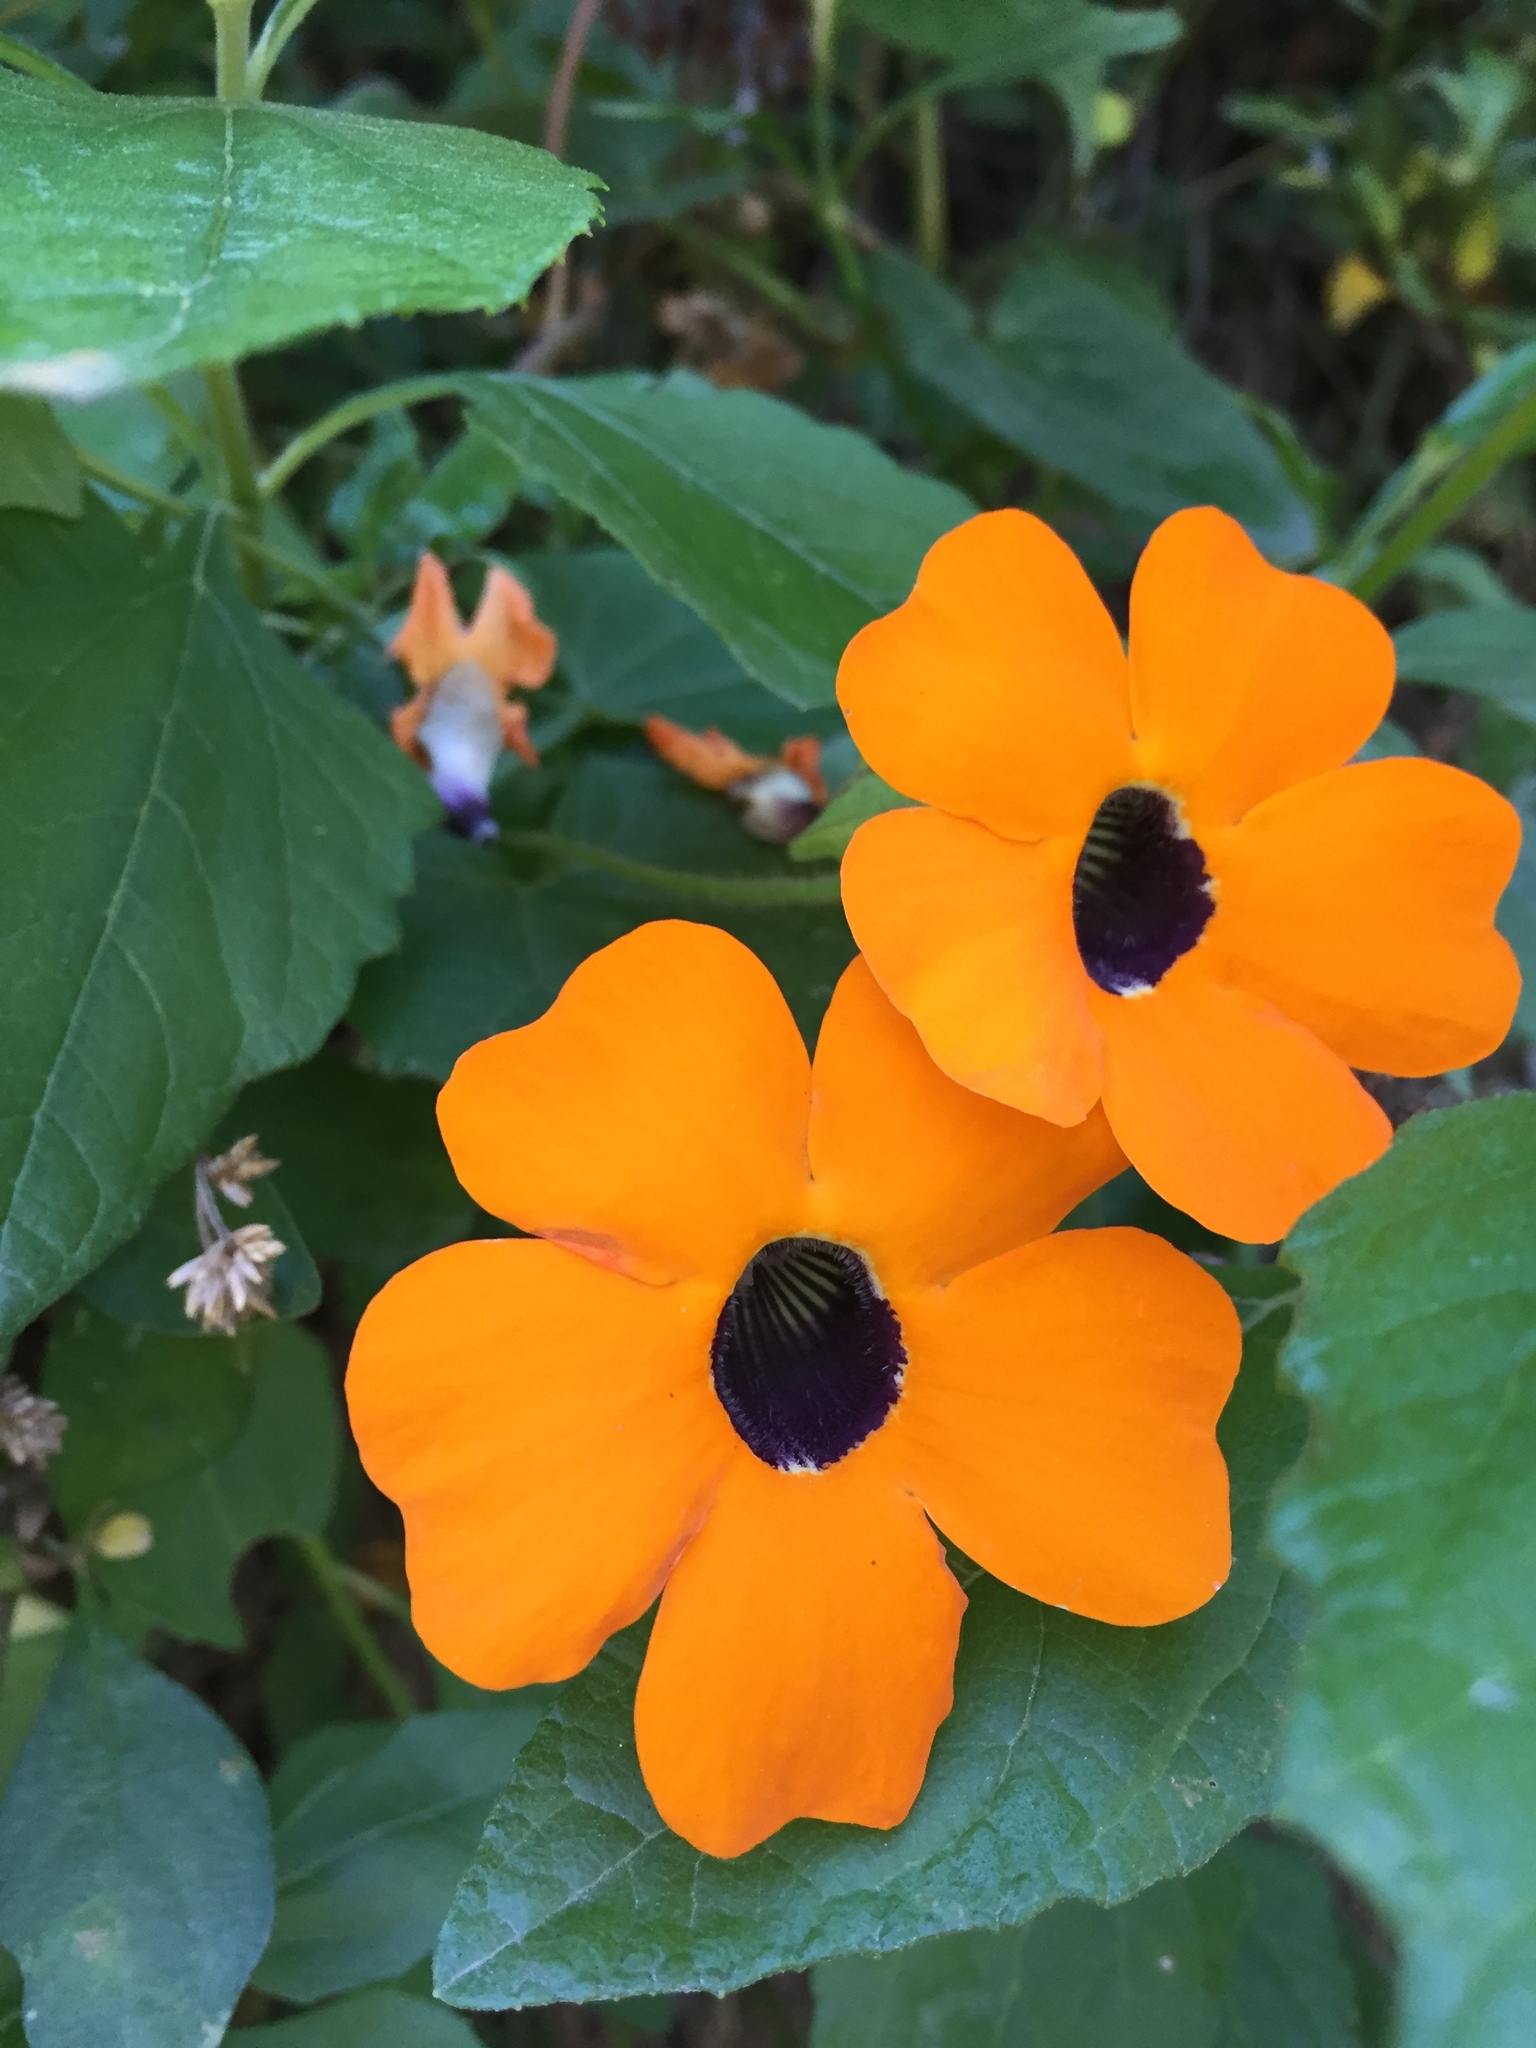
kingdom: Plantae
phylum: Tracheophyta
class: Magnoliopsida
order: Lamiales
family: Acanthaceae
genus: Thunbergia
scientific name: Thunbergia alata
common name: Blackeyed susan vine
